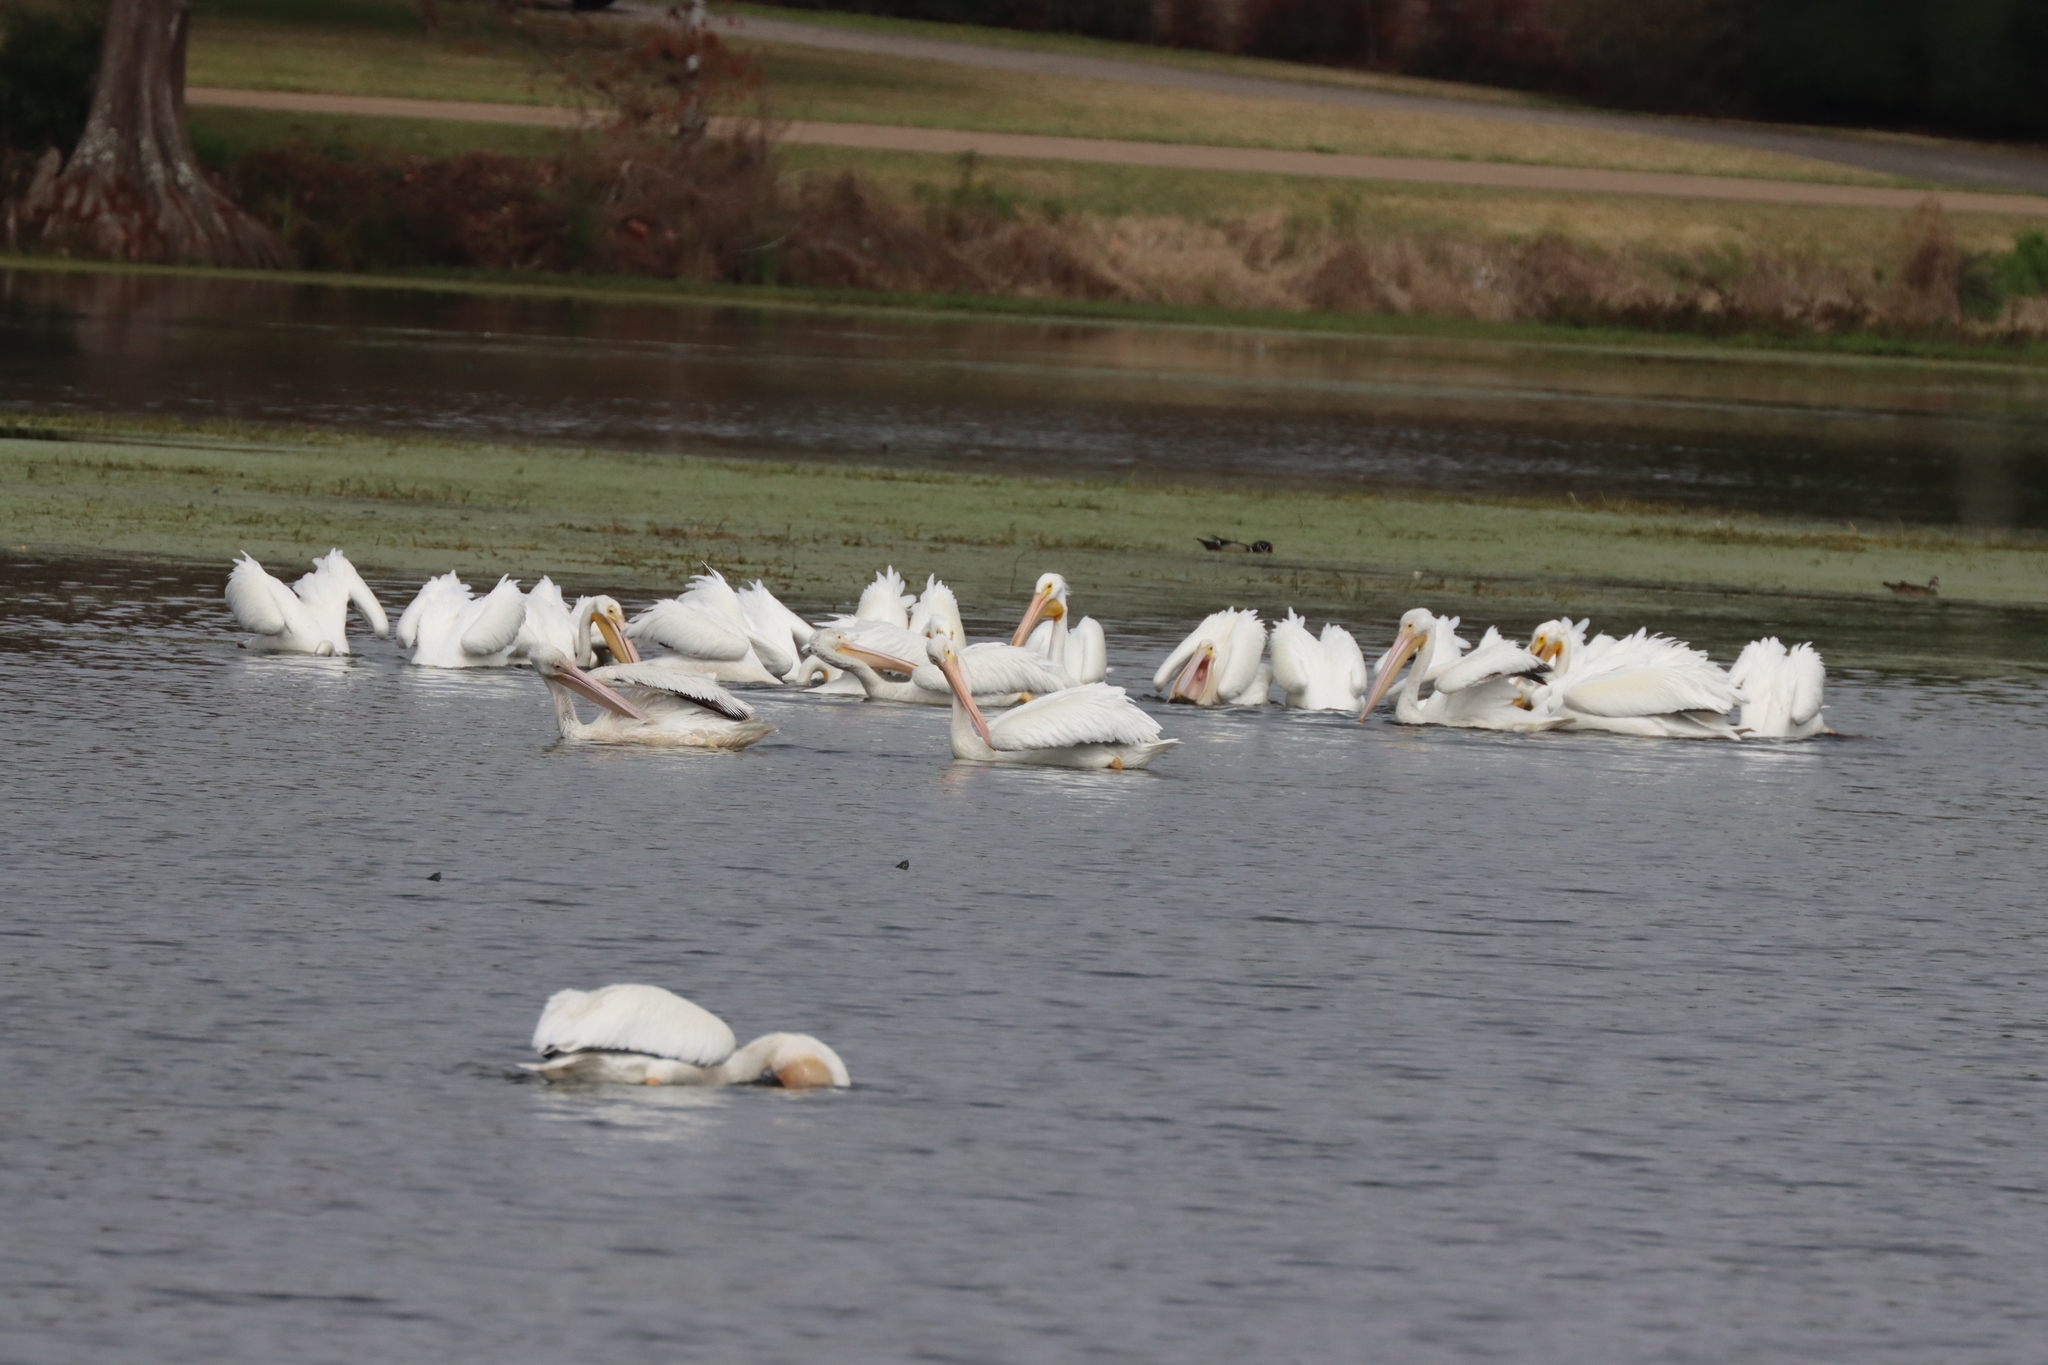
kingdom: Animalia
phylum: Chordata
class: Aves
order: Pelecaniformes
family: Pelecanidae
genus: Pelecanus
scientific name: Pelecanus erythrorhynchos
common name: American white pelican
